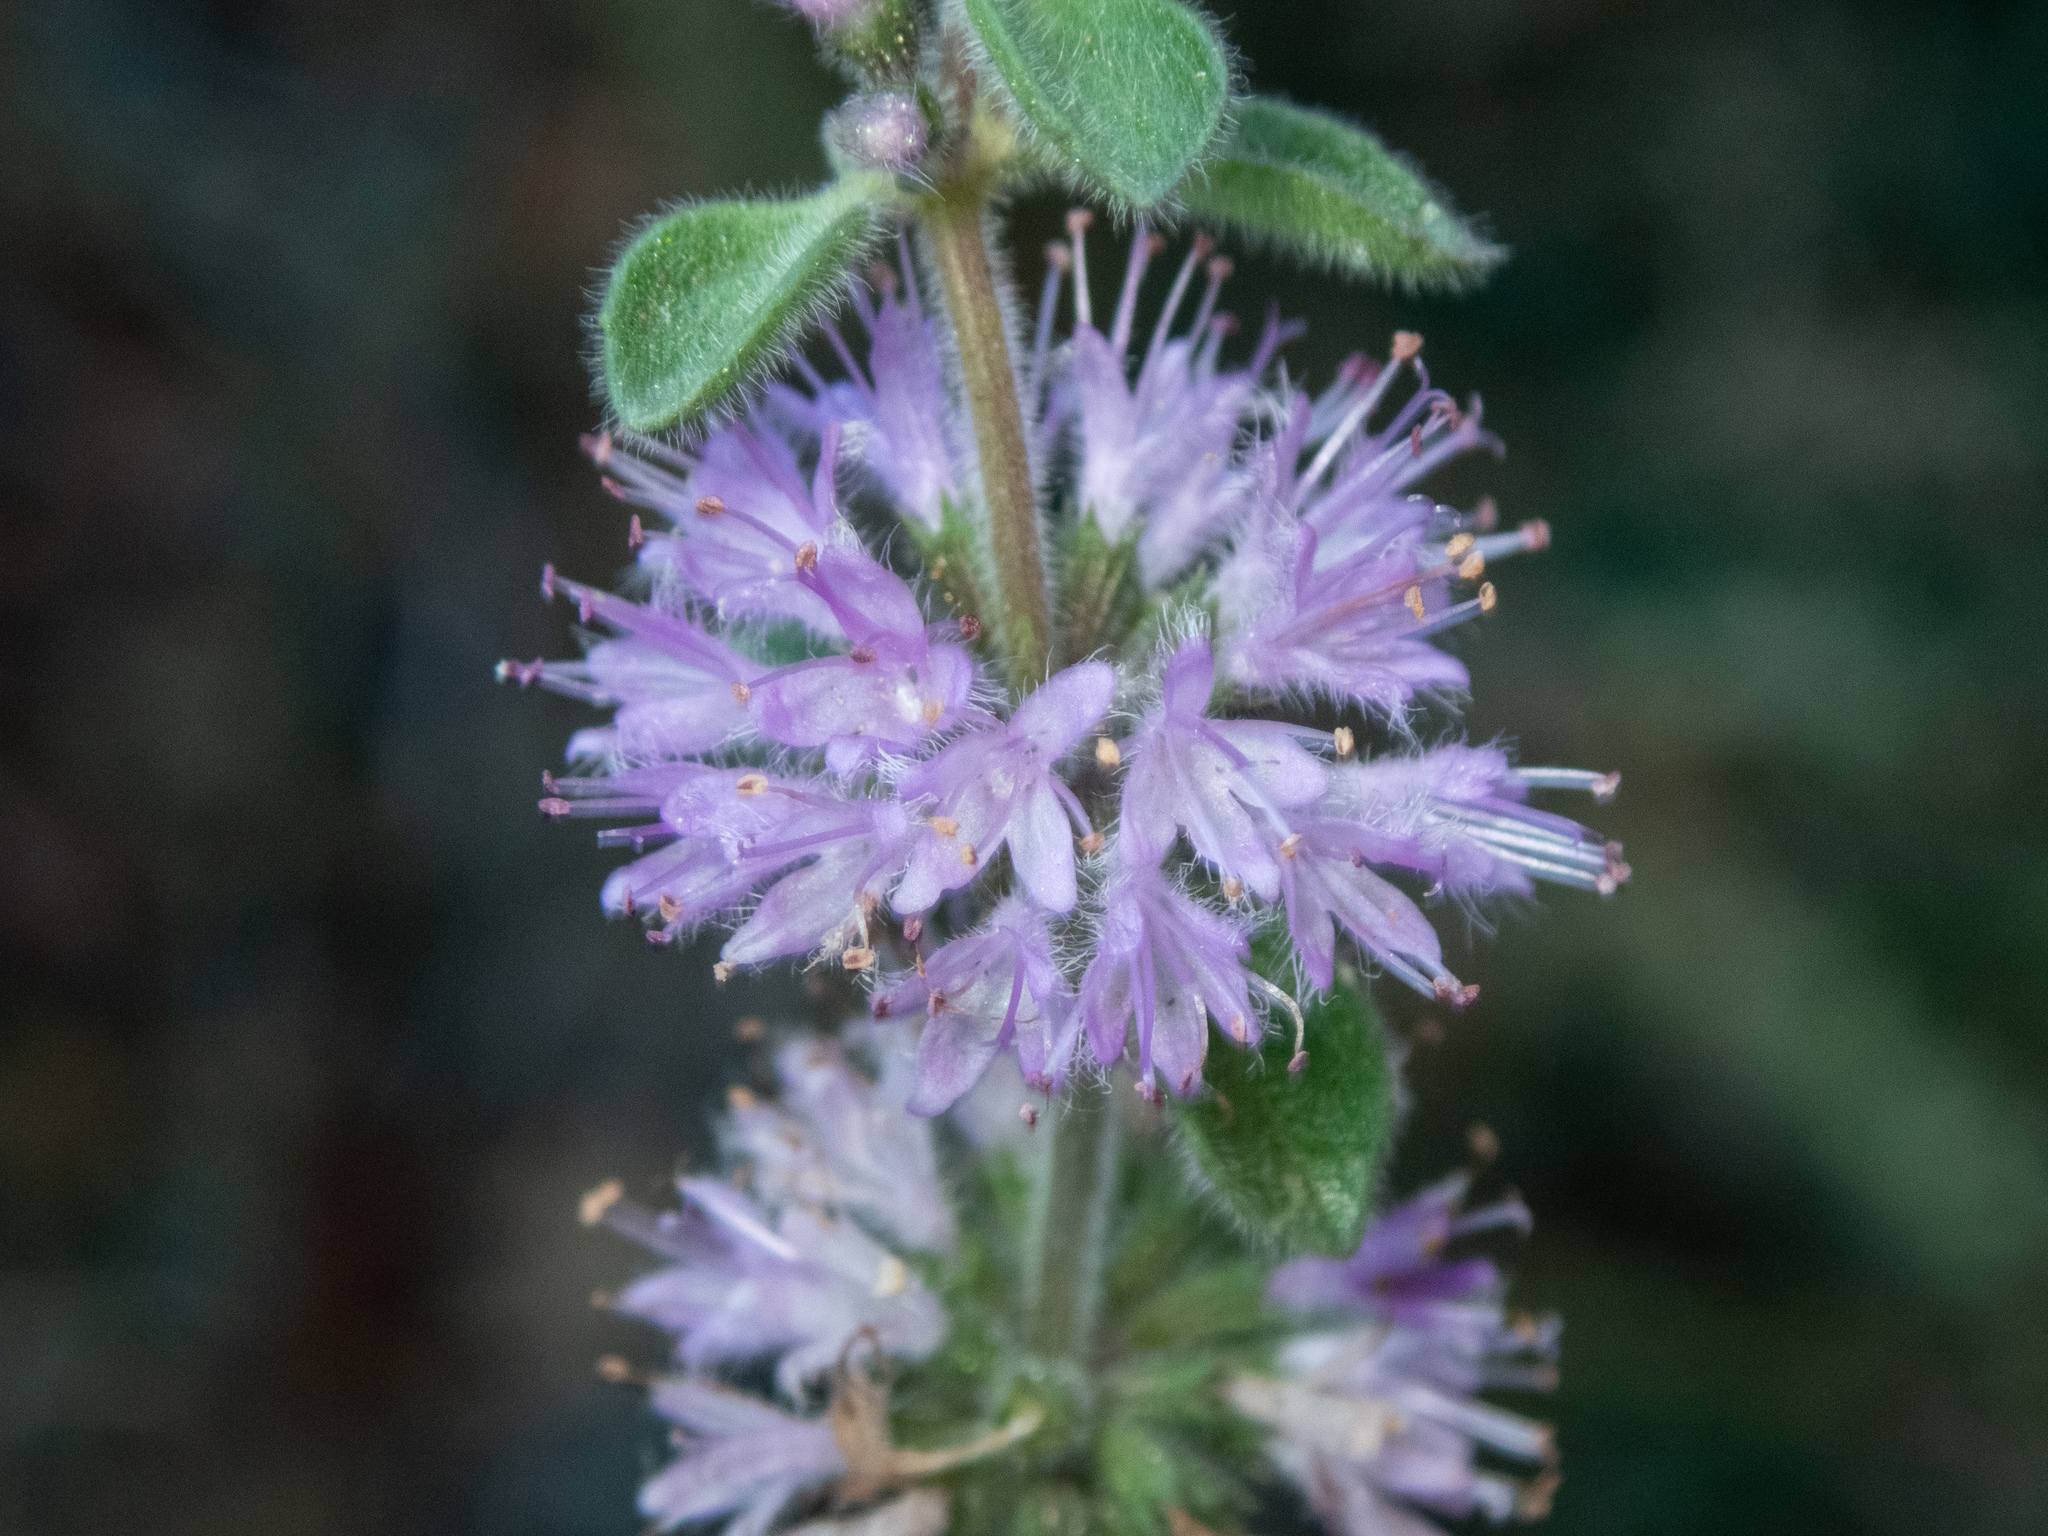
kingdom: Plantae
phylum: Tracheophyta
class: Magnoliopsida
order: Lamiales
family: Lamiaceae
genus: Mentha
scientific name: Mentha pulegium
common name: Pennyroyal
